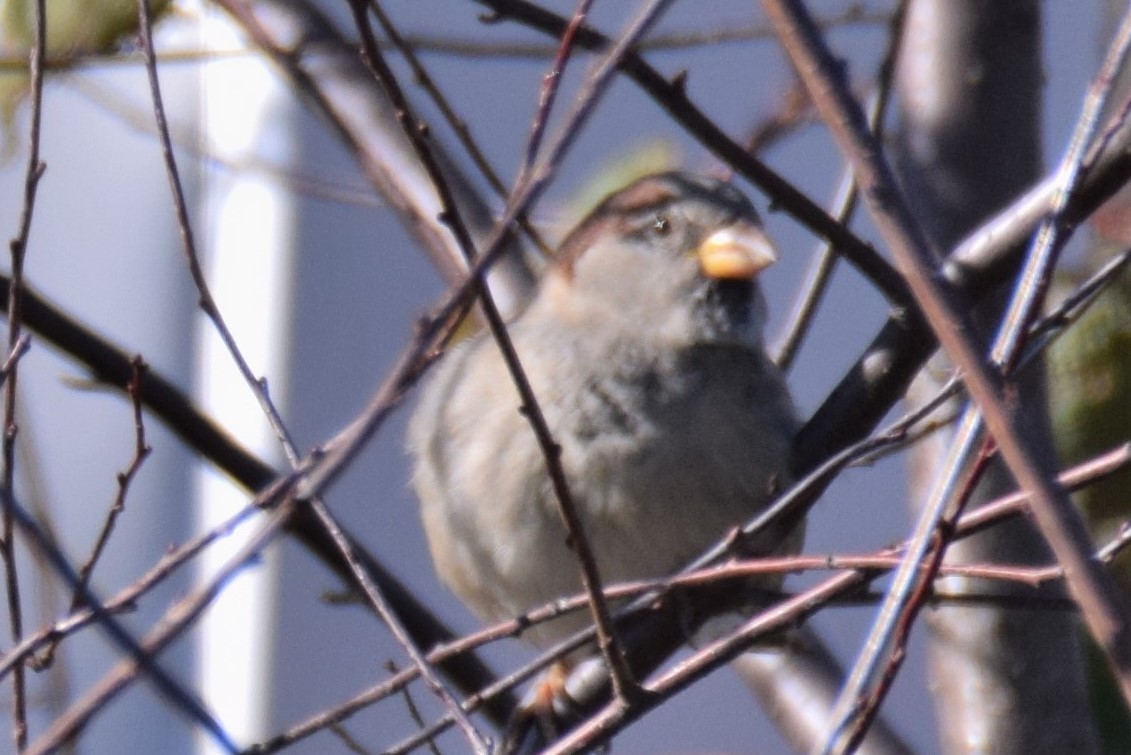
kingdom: Animalia
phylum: Chordata
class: Aves
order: Passeriformes
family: Passeridae
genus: Passer
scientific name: Passer domesticus
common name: House sparrow
